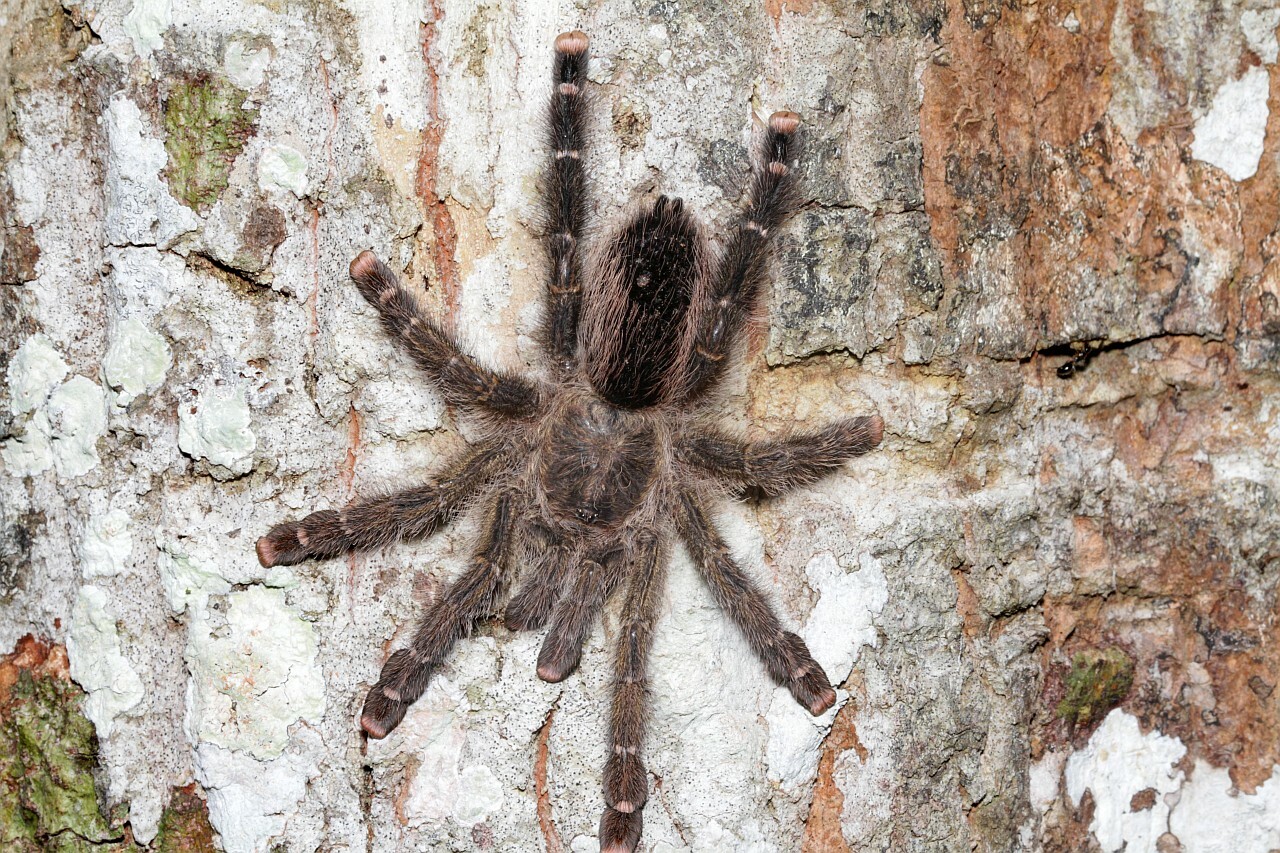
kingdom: Animalia
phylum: Arthropoda
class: Arachnida
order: Araneae
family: Theraphosidae
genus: Avicularia
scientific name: Avicularia juruensis
